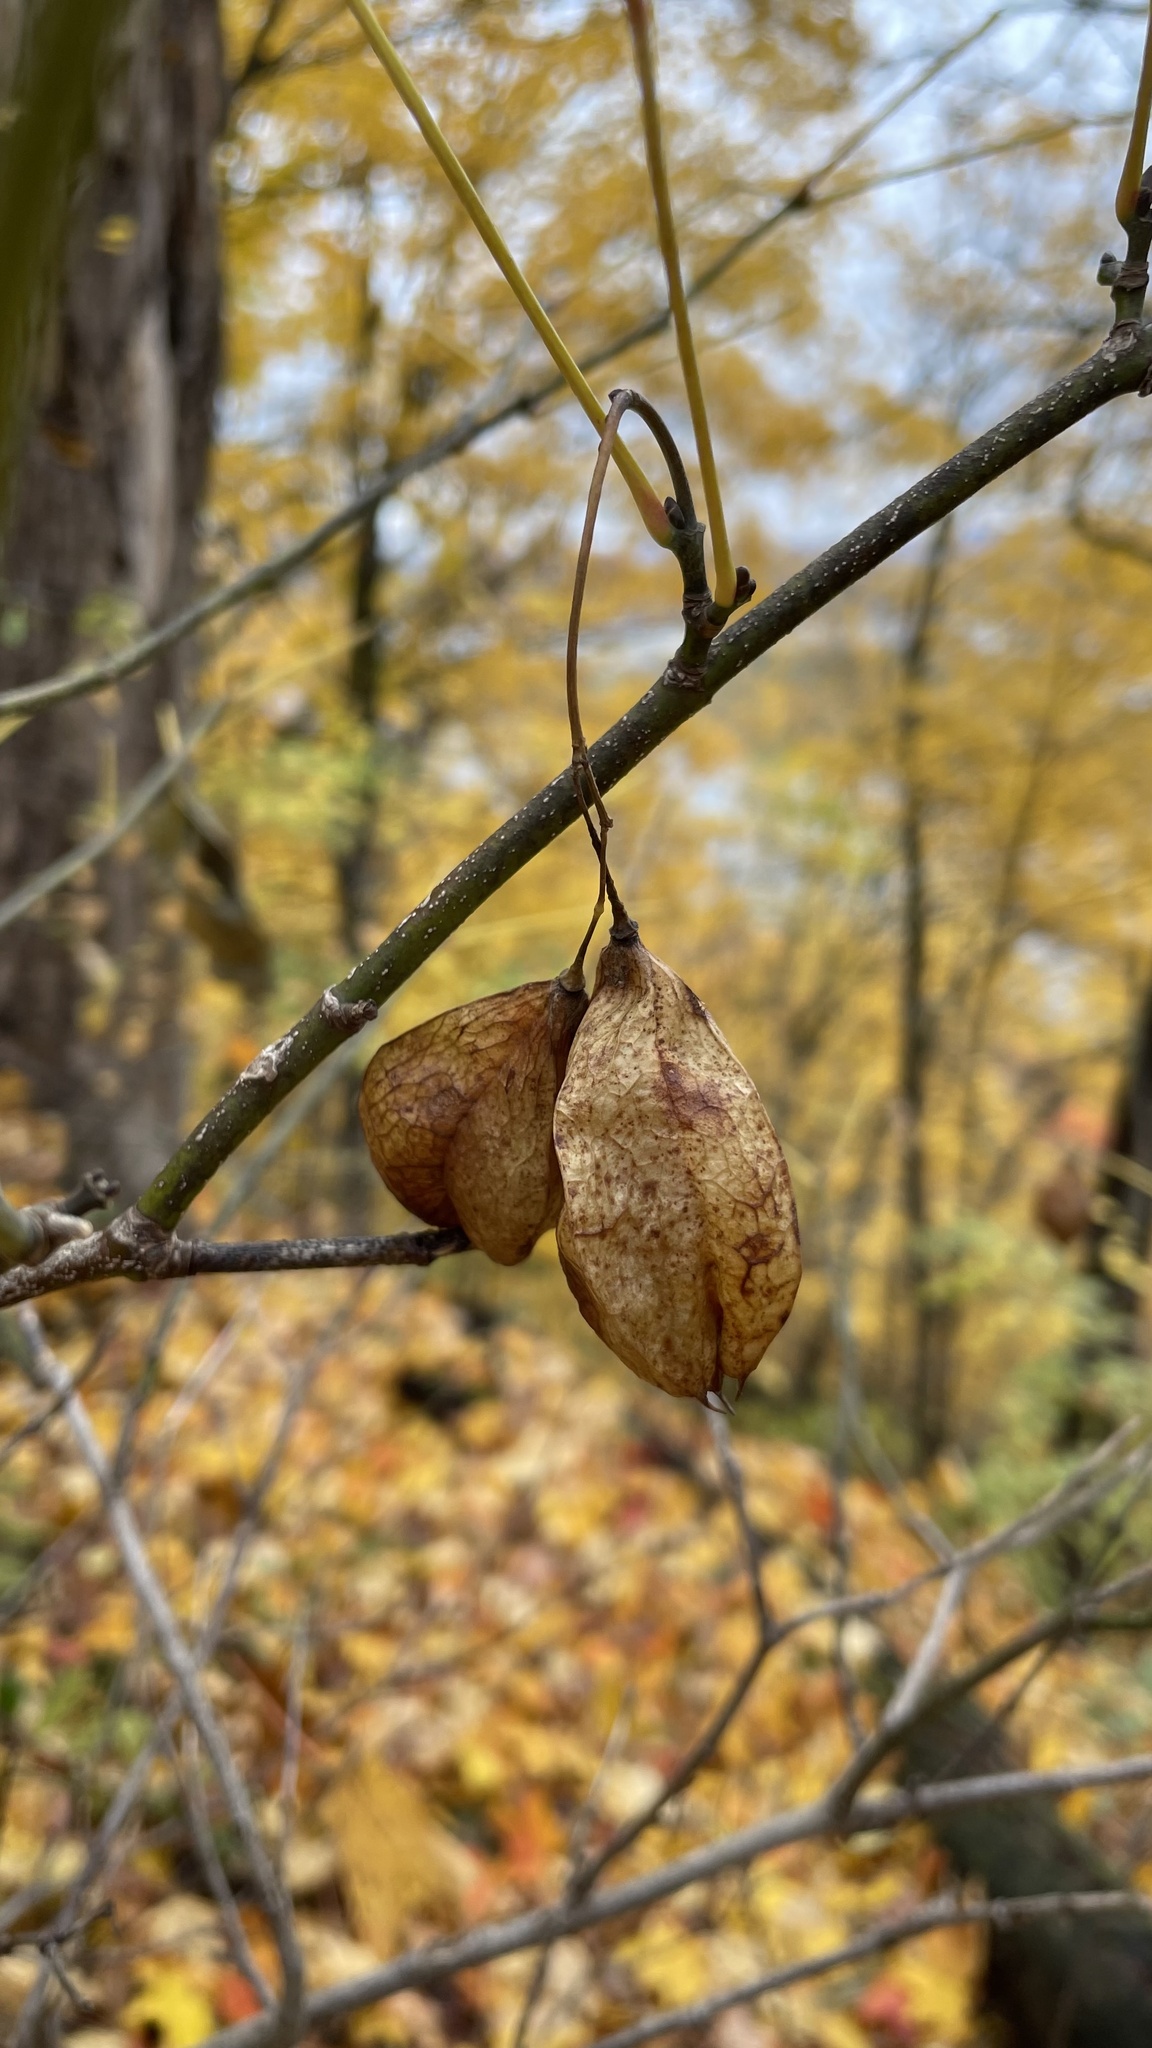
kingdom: Plantae
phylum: Tracheophyta
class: Magnoliopsida
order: Crossosomatales
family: Staphyleaceae
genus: Staphylea
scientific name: Staphylea trifolia
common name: American bladdernut
